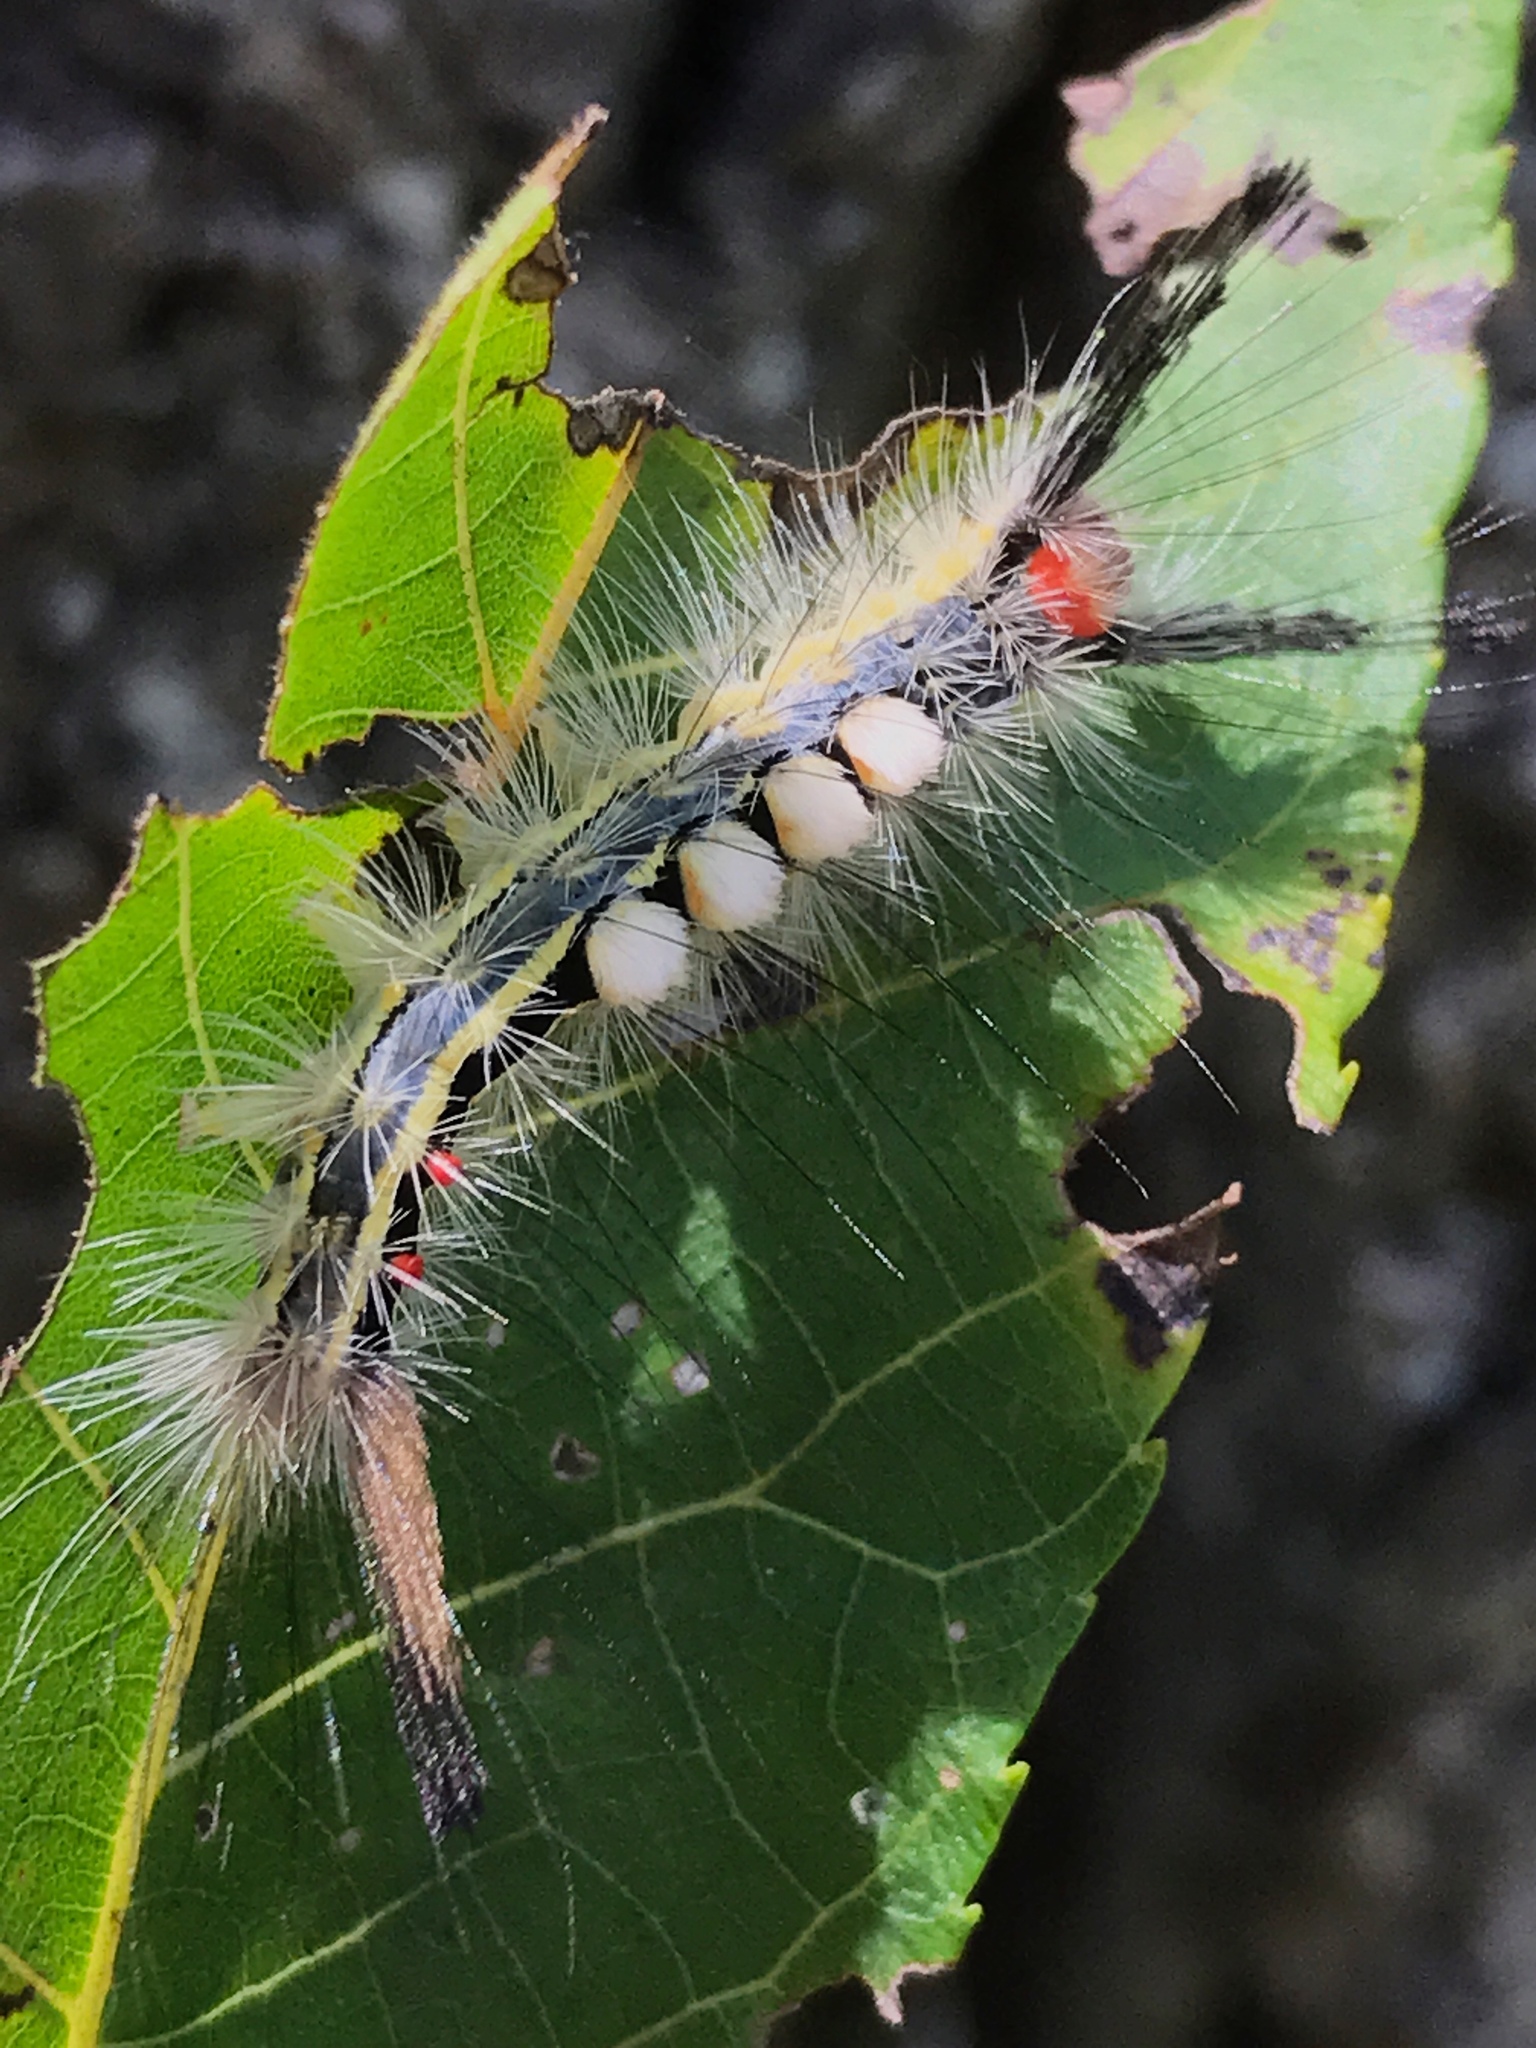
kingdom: Animalia
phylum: Arthropoda
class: Insecta
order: Lepidoptera
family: Erebidae
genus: Orgyia
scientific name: Orgyia leucostigma
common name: White-marked tussock moth
